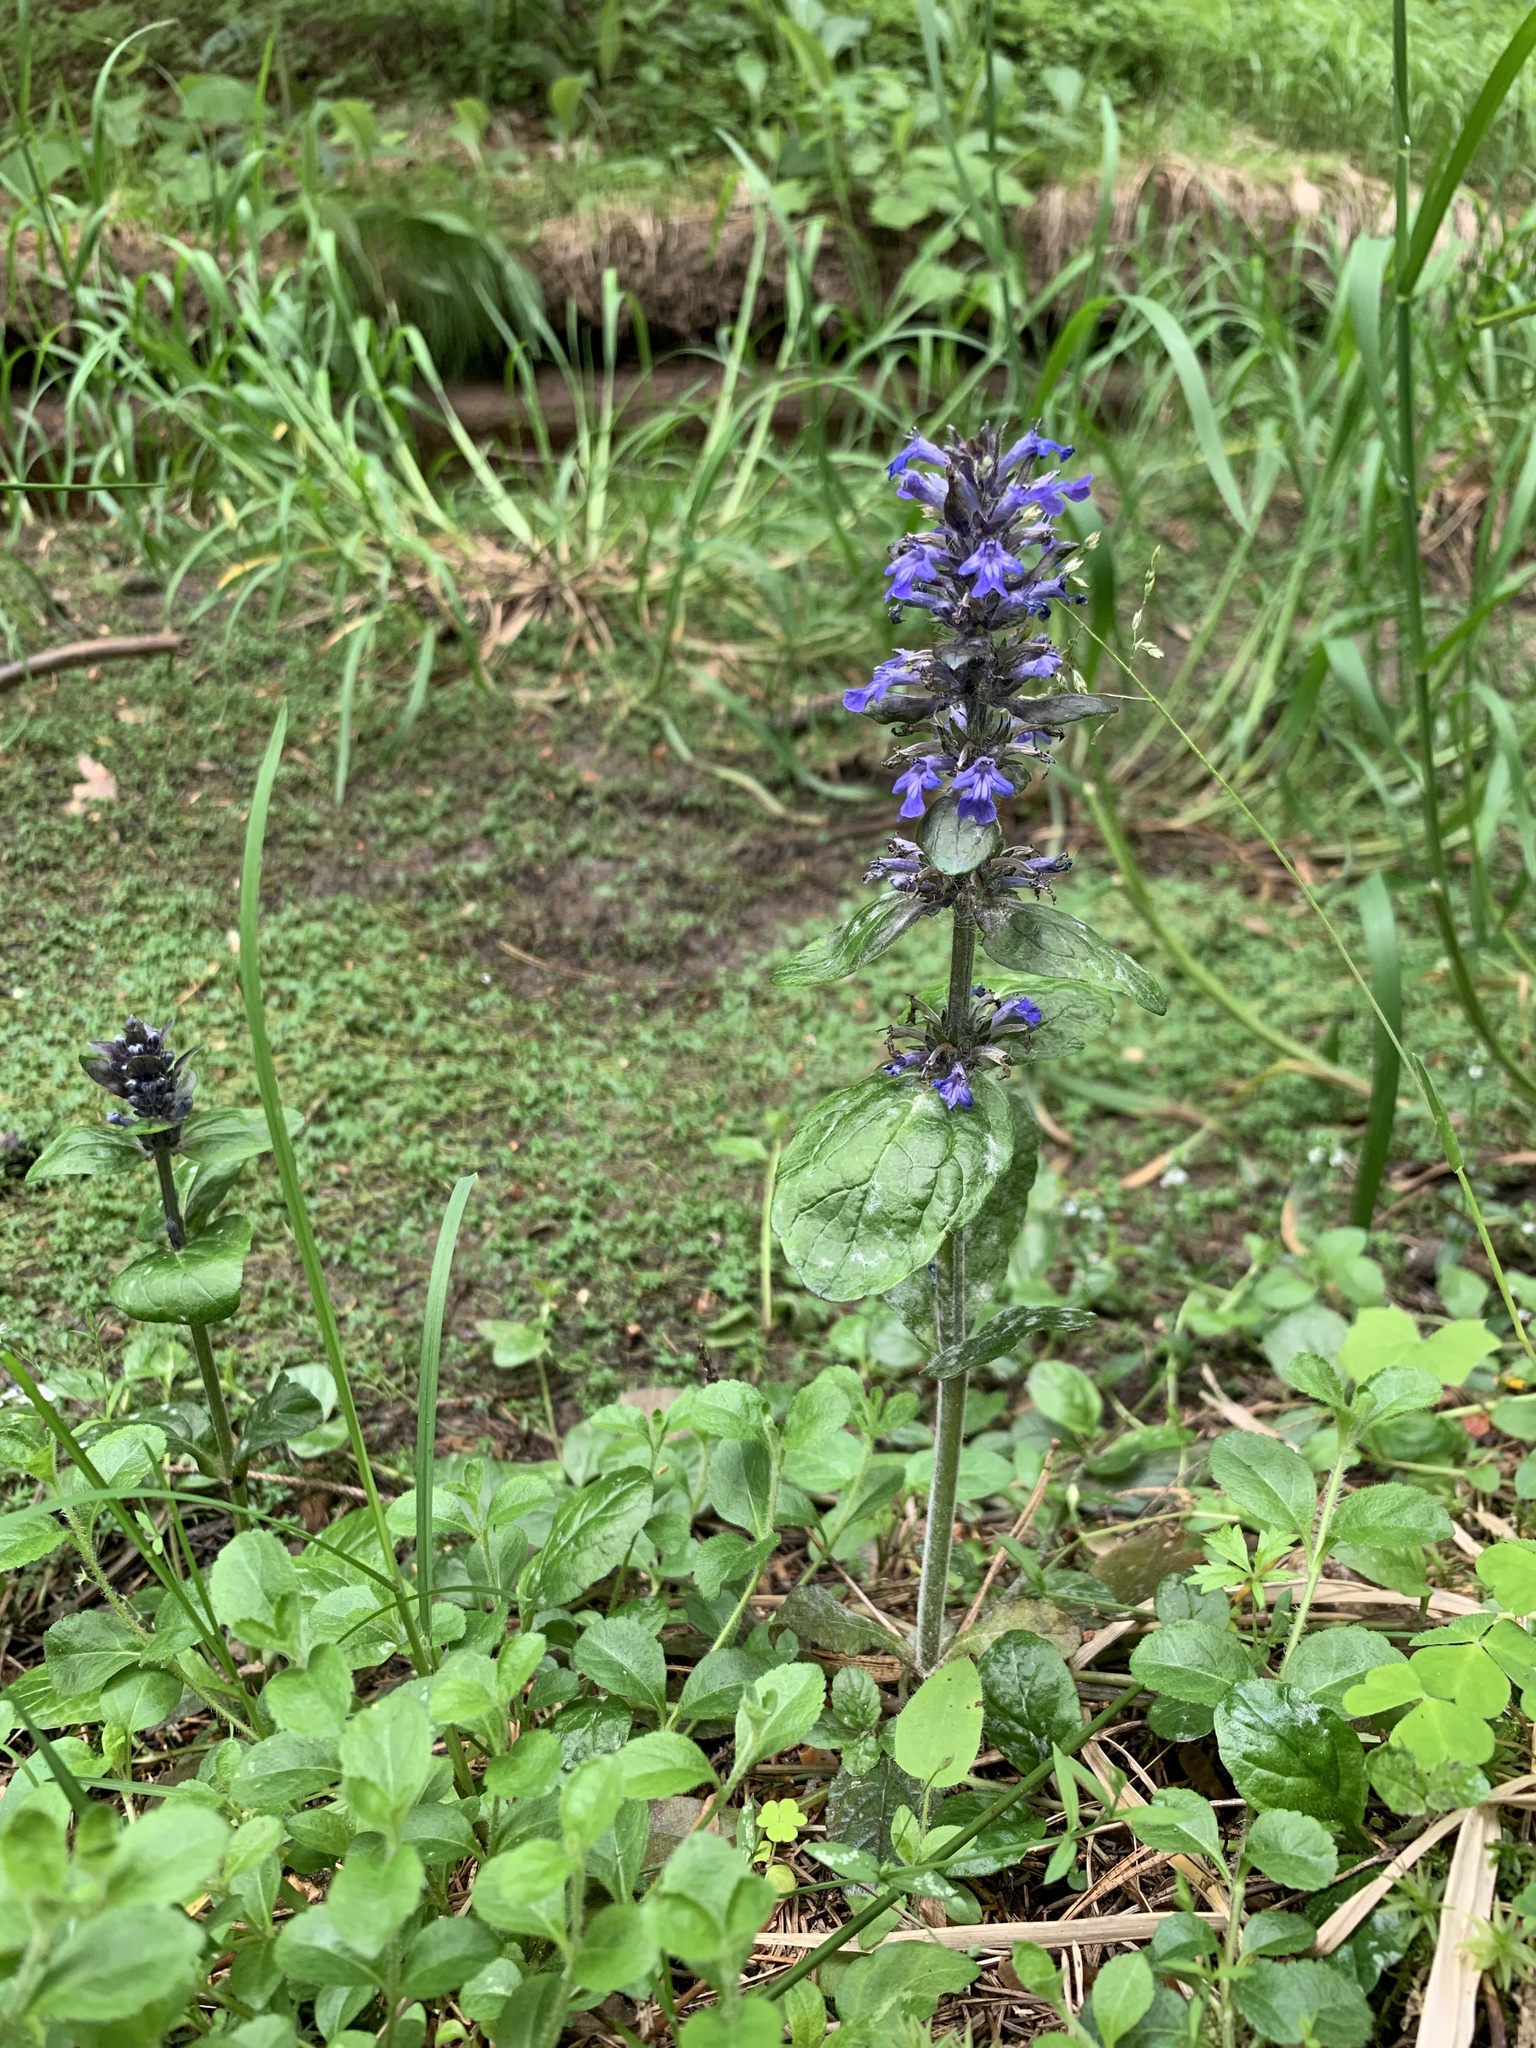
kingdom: Plantae
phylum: Tracheophyta
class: Magnoliopsida
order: Lamiales
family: Lamiaceae
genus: Ajuga
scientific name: Ajuga reptans
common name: Bugle
